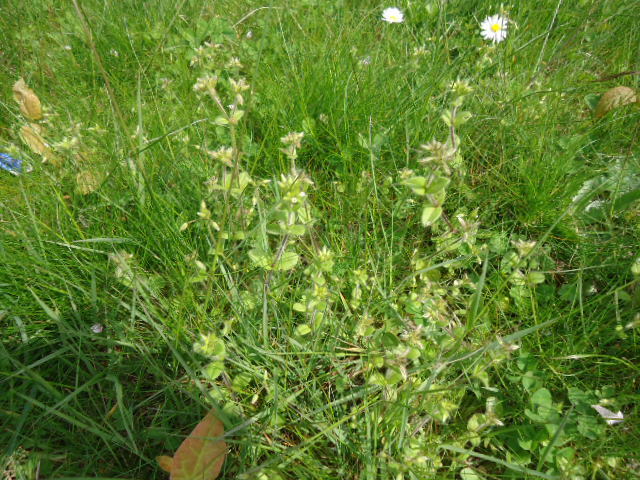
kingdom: Plantae
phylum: Tracheophyta
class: Magnoliopsida
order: Caryophyllales
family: Caryophyllaceae
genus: Cerastium
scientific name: Cerastium glomeratum
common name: Sticky chickweed
